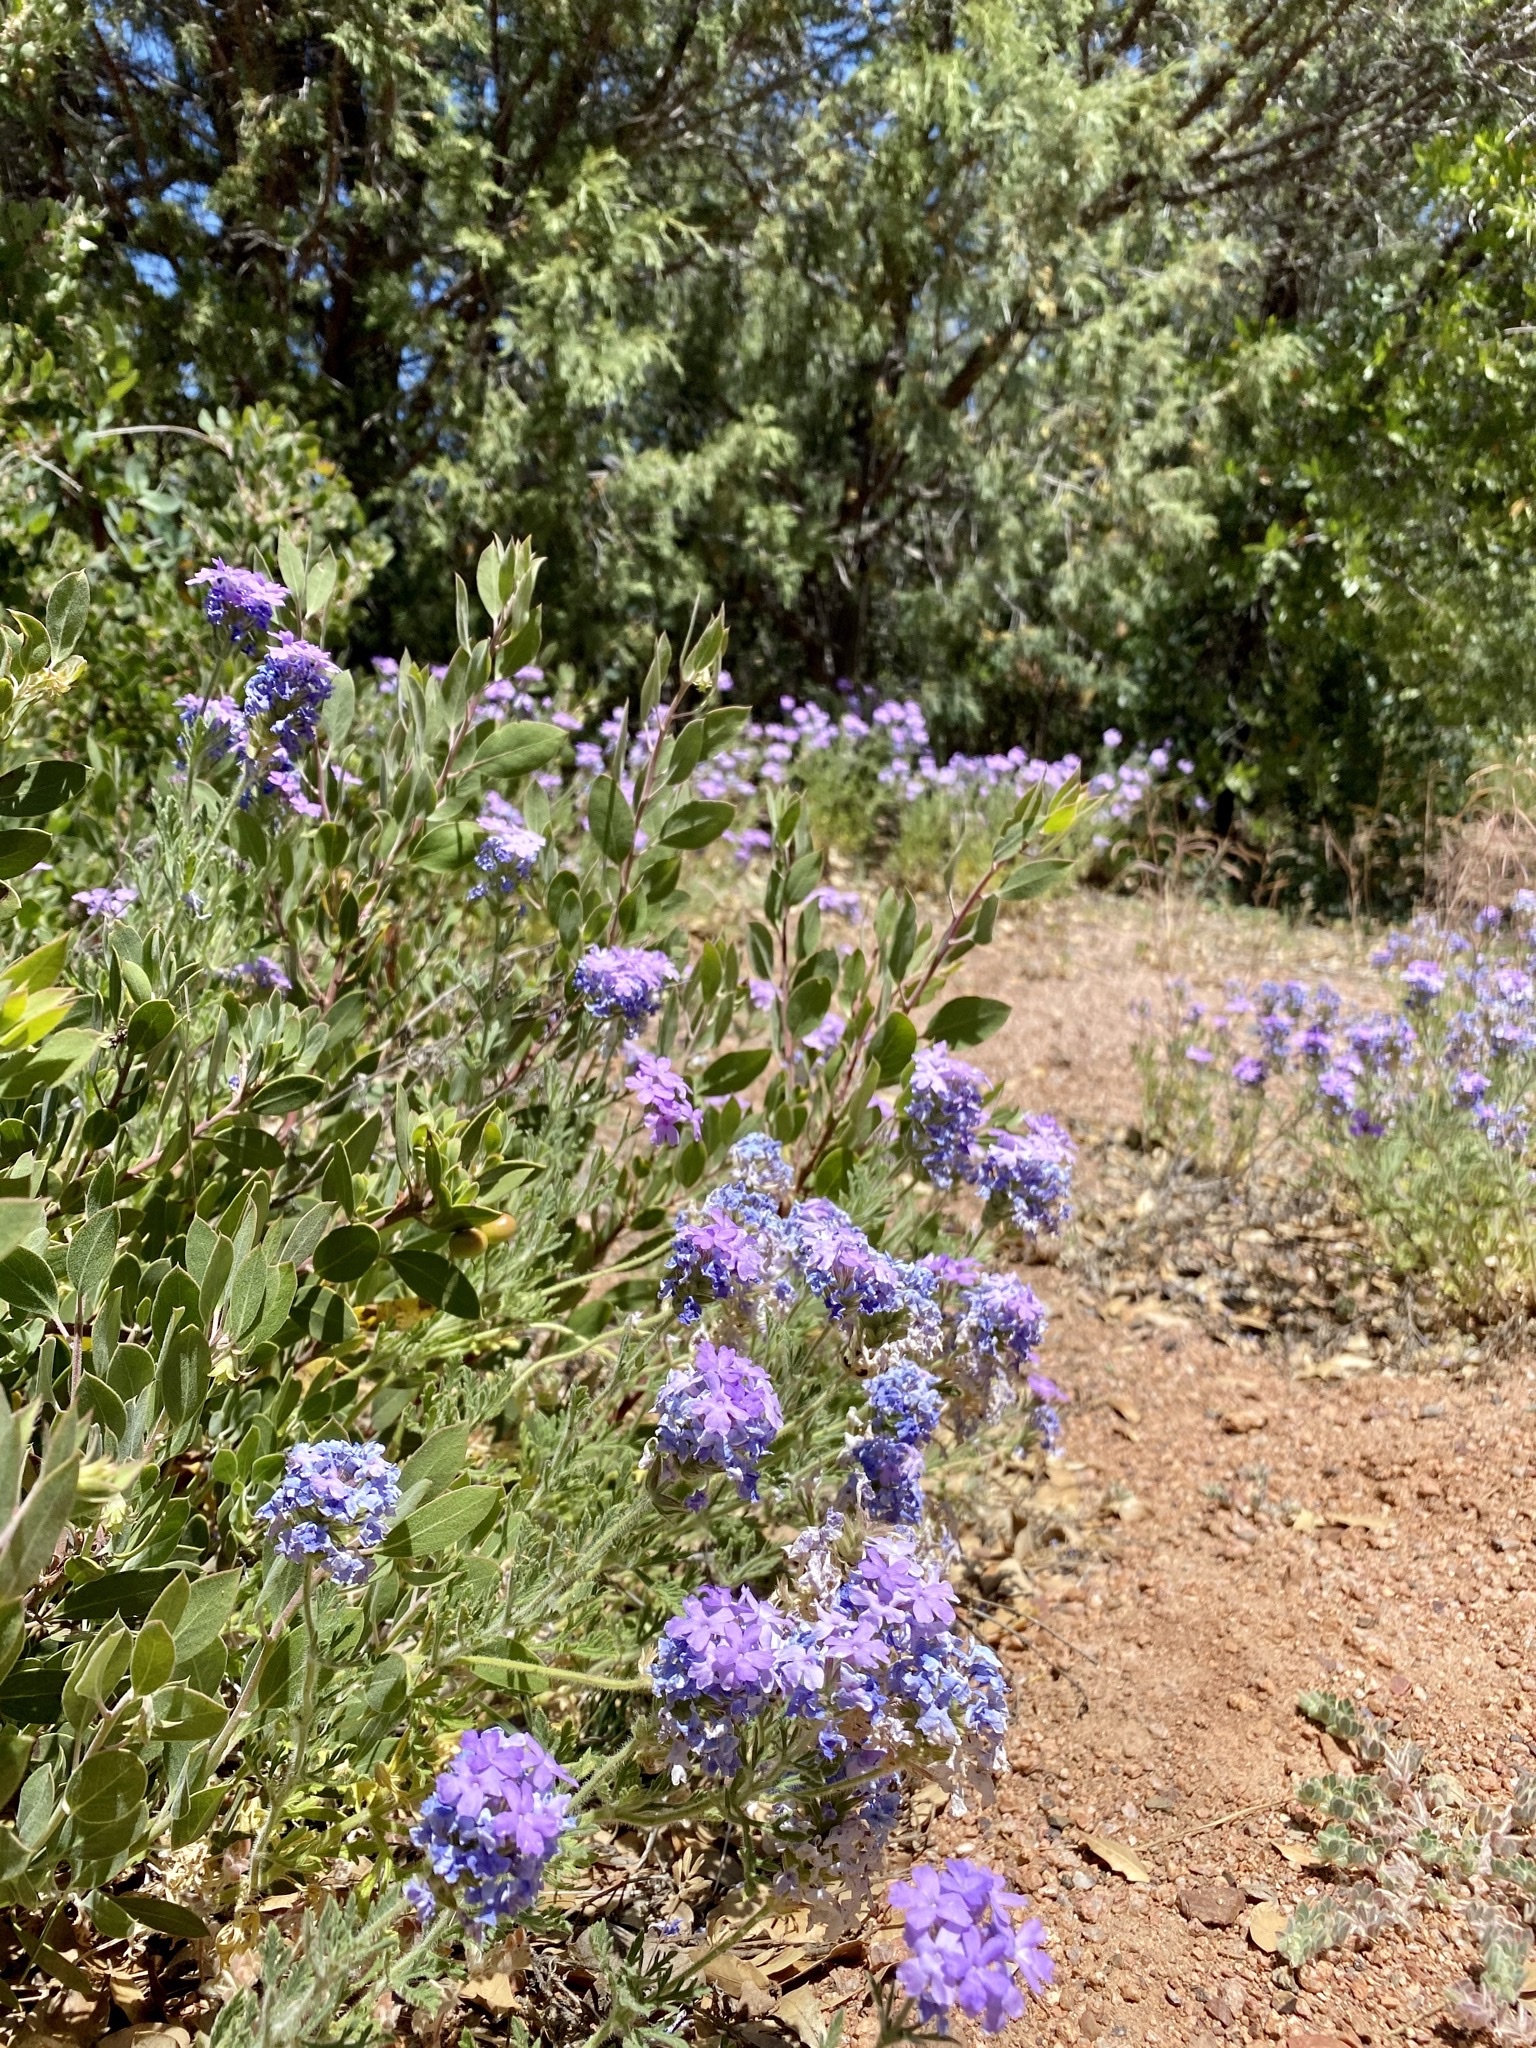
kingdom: Plantae
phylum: Tracheophyta
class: Magnoliopsida
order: Lamiales
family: Verbenaceae
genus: Verbena
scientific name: Verbena gooddingii
